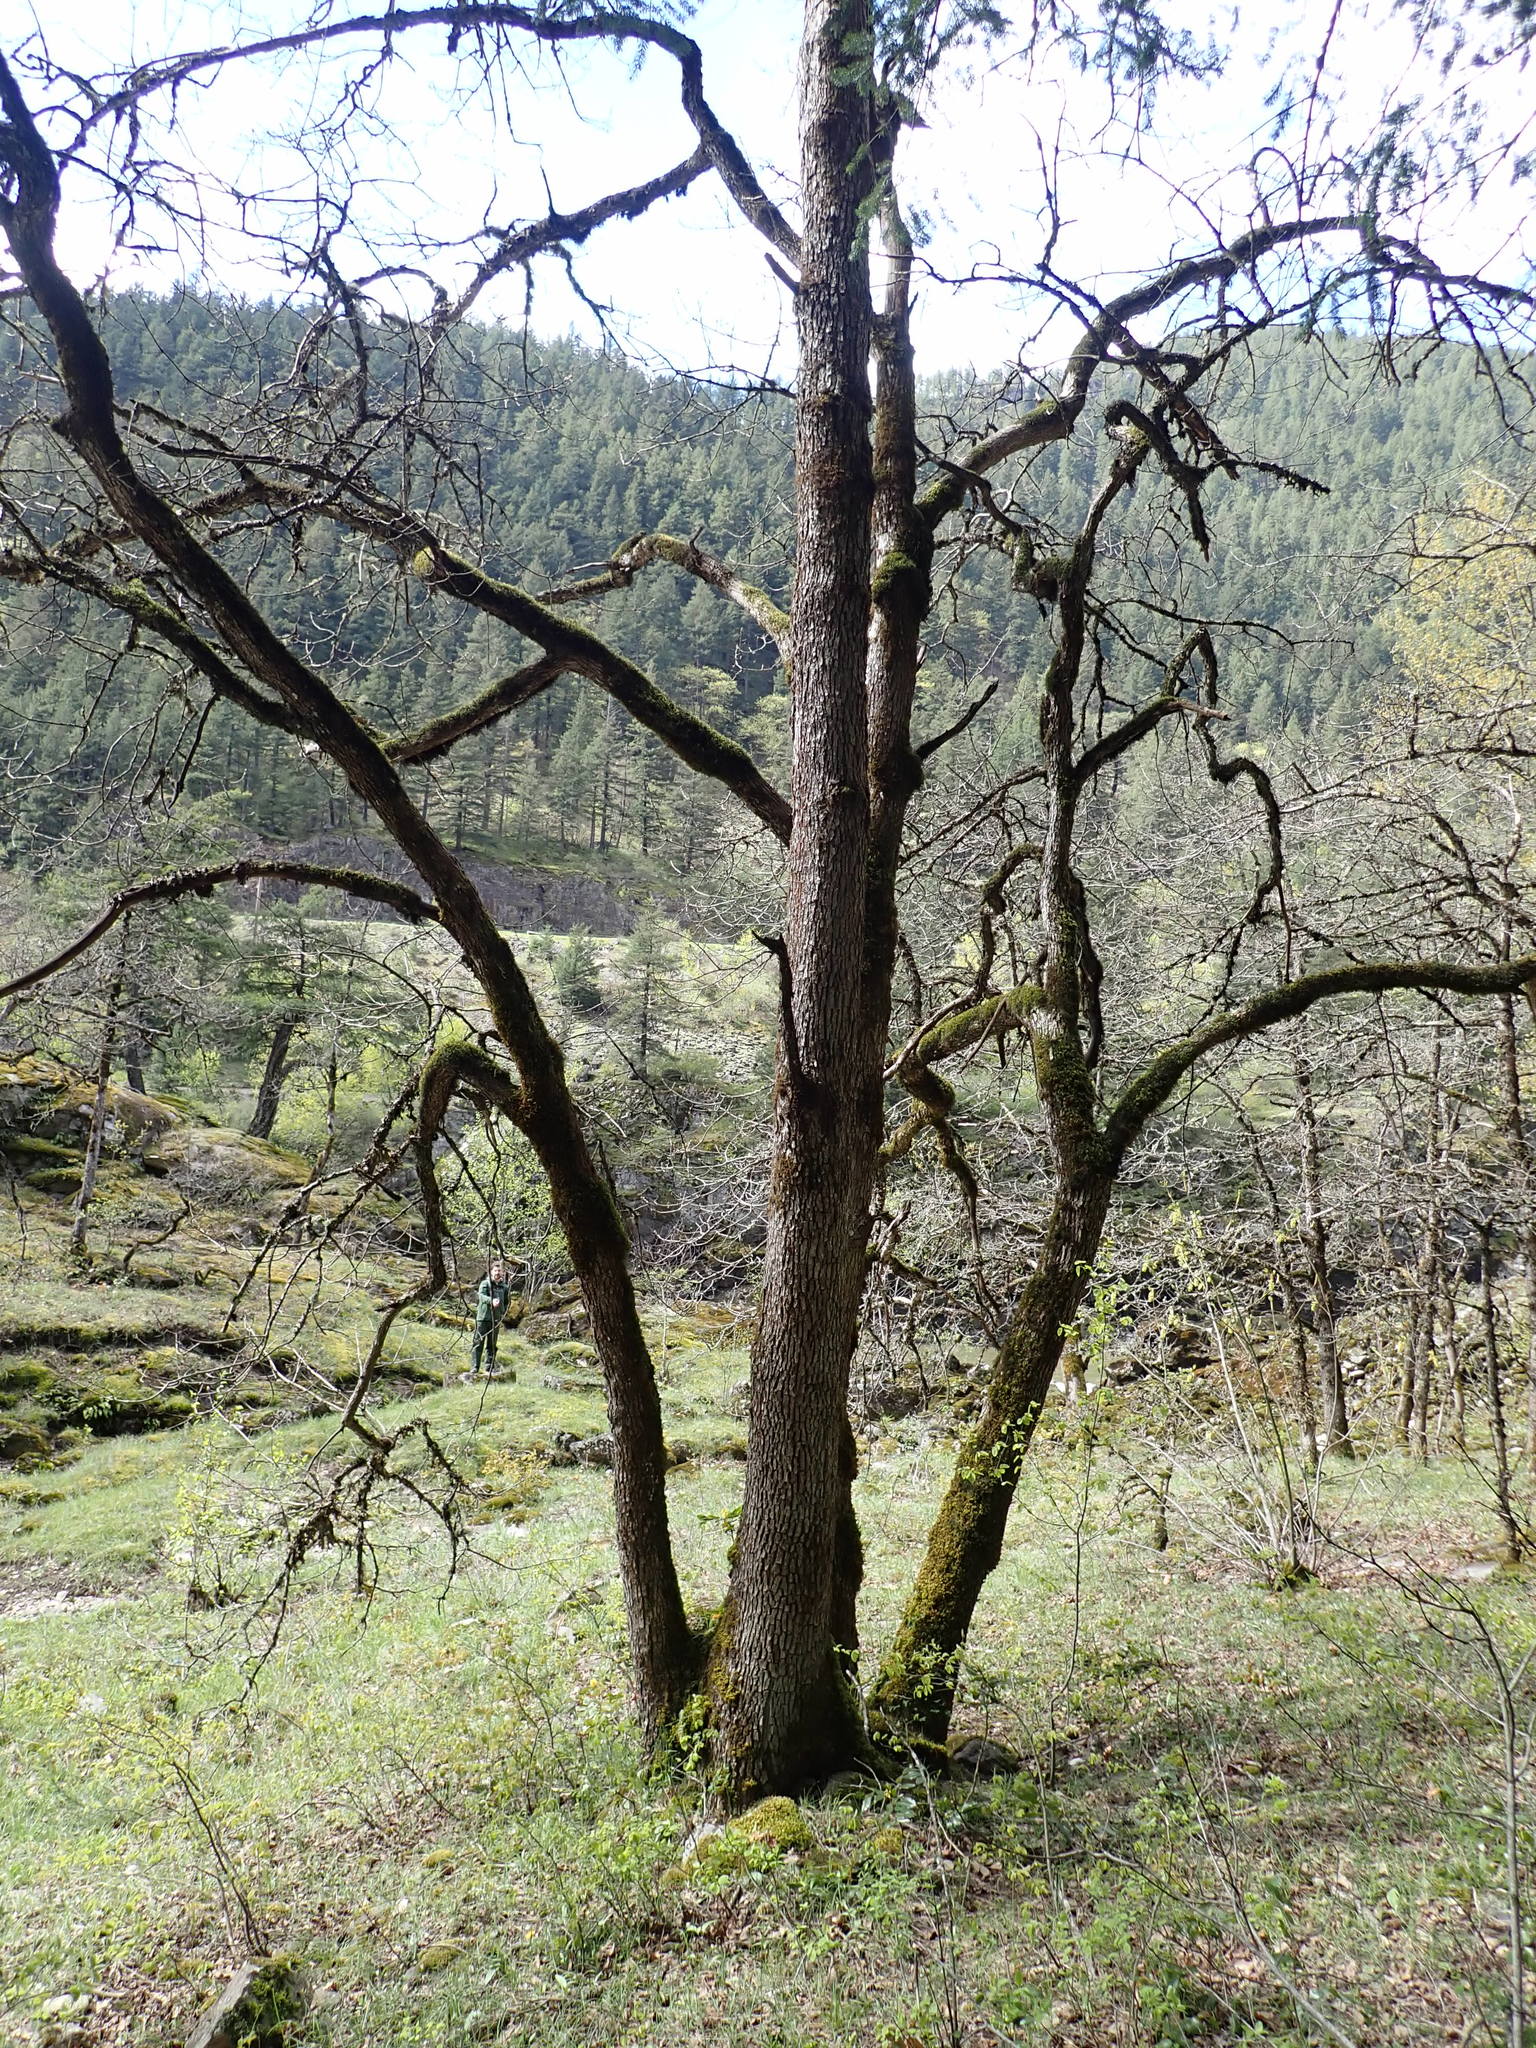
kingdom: Plantae
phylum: Tracheophyta
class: Magnoliopsida
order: Fagales
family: Fagaceae
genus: Quercus
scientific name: Quercus garryana
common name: Garry oak
